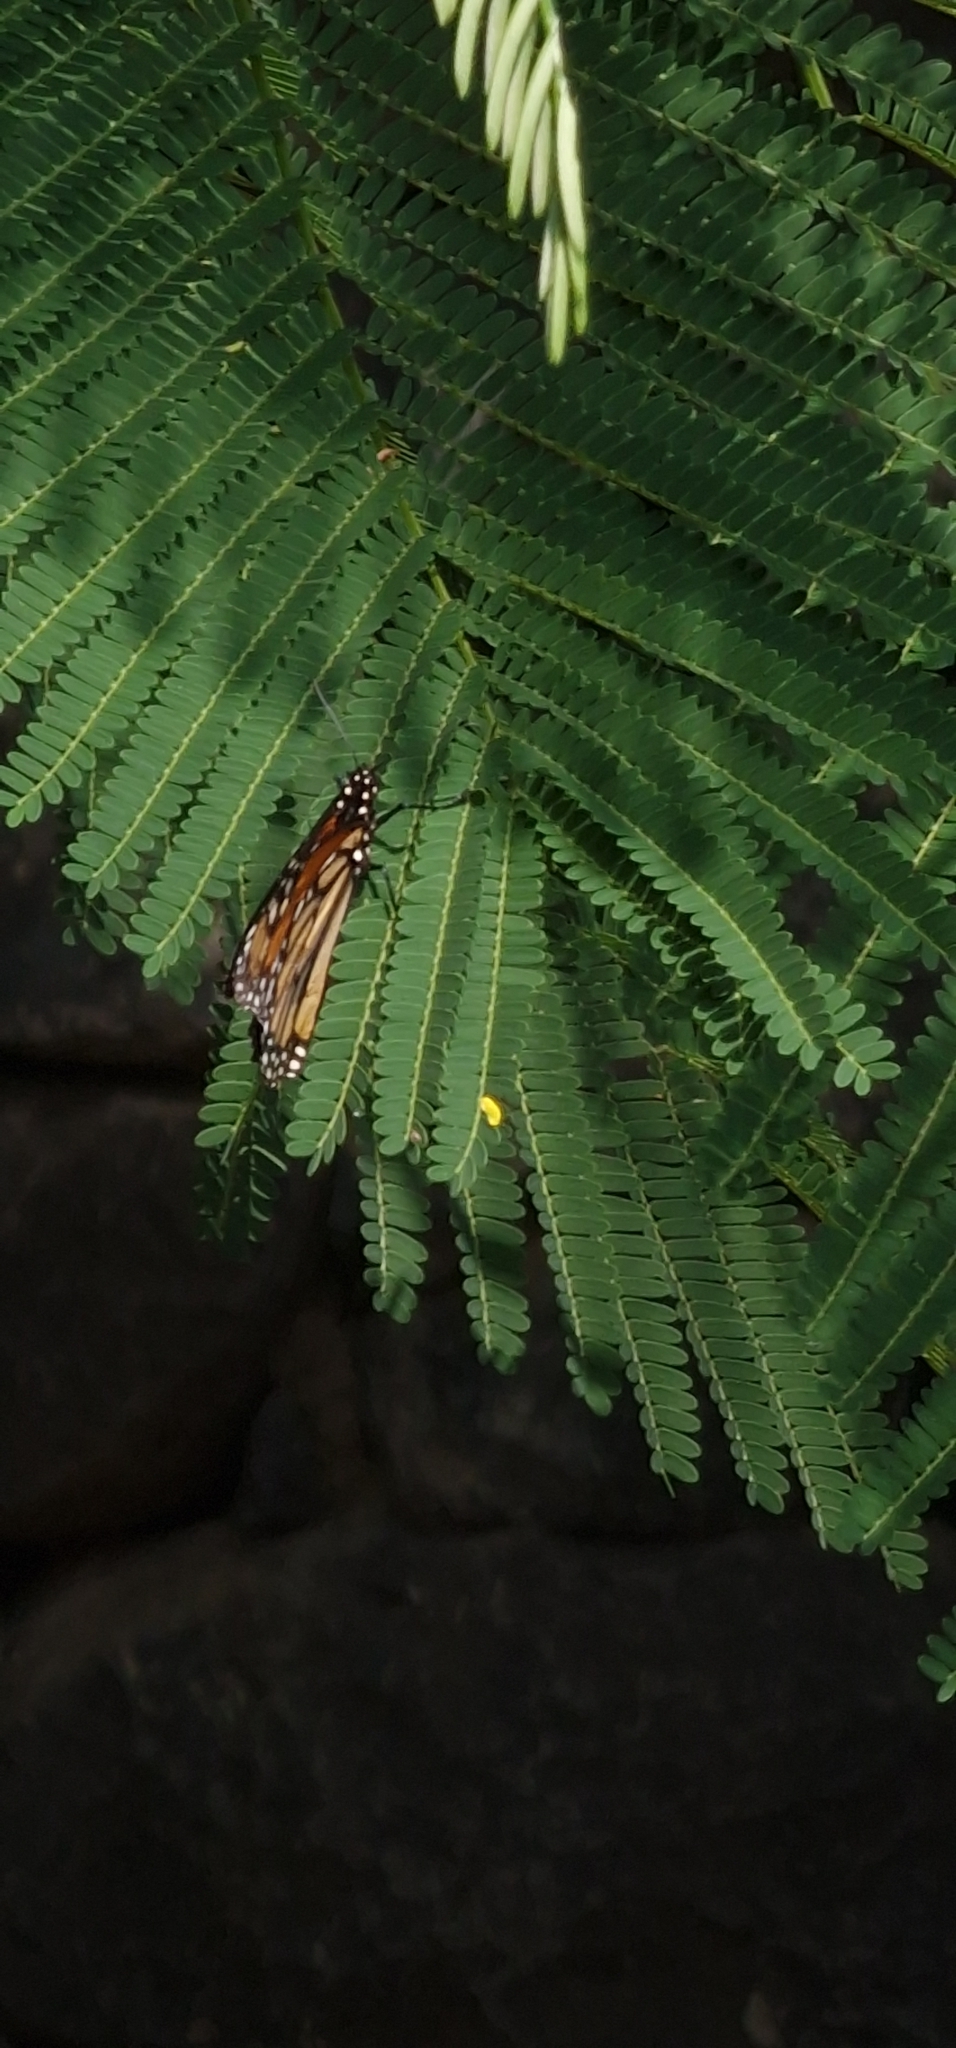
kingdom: Animalia
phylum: Arthropoda
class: Insecta
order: Lepidoptera
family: Nymphalidae
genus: Danaus
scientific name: Danaus plexippus
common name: Monarch
